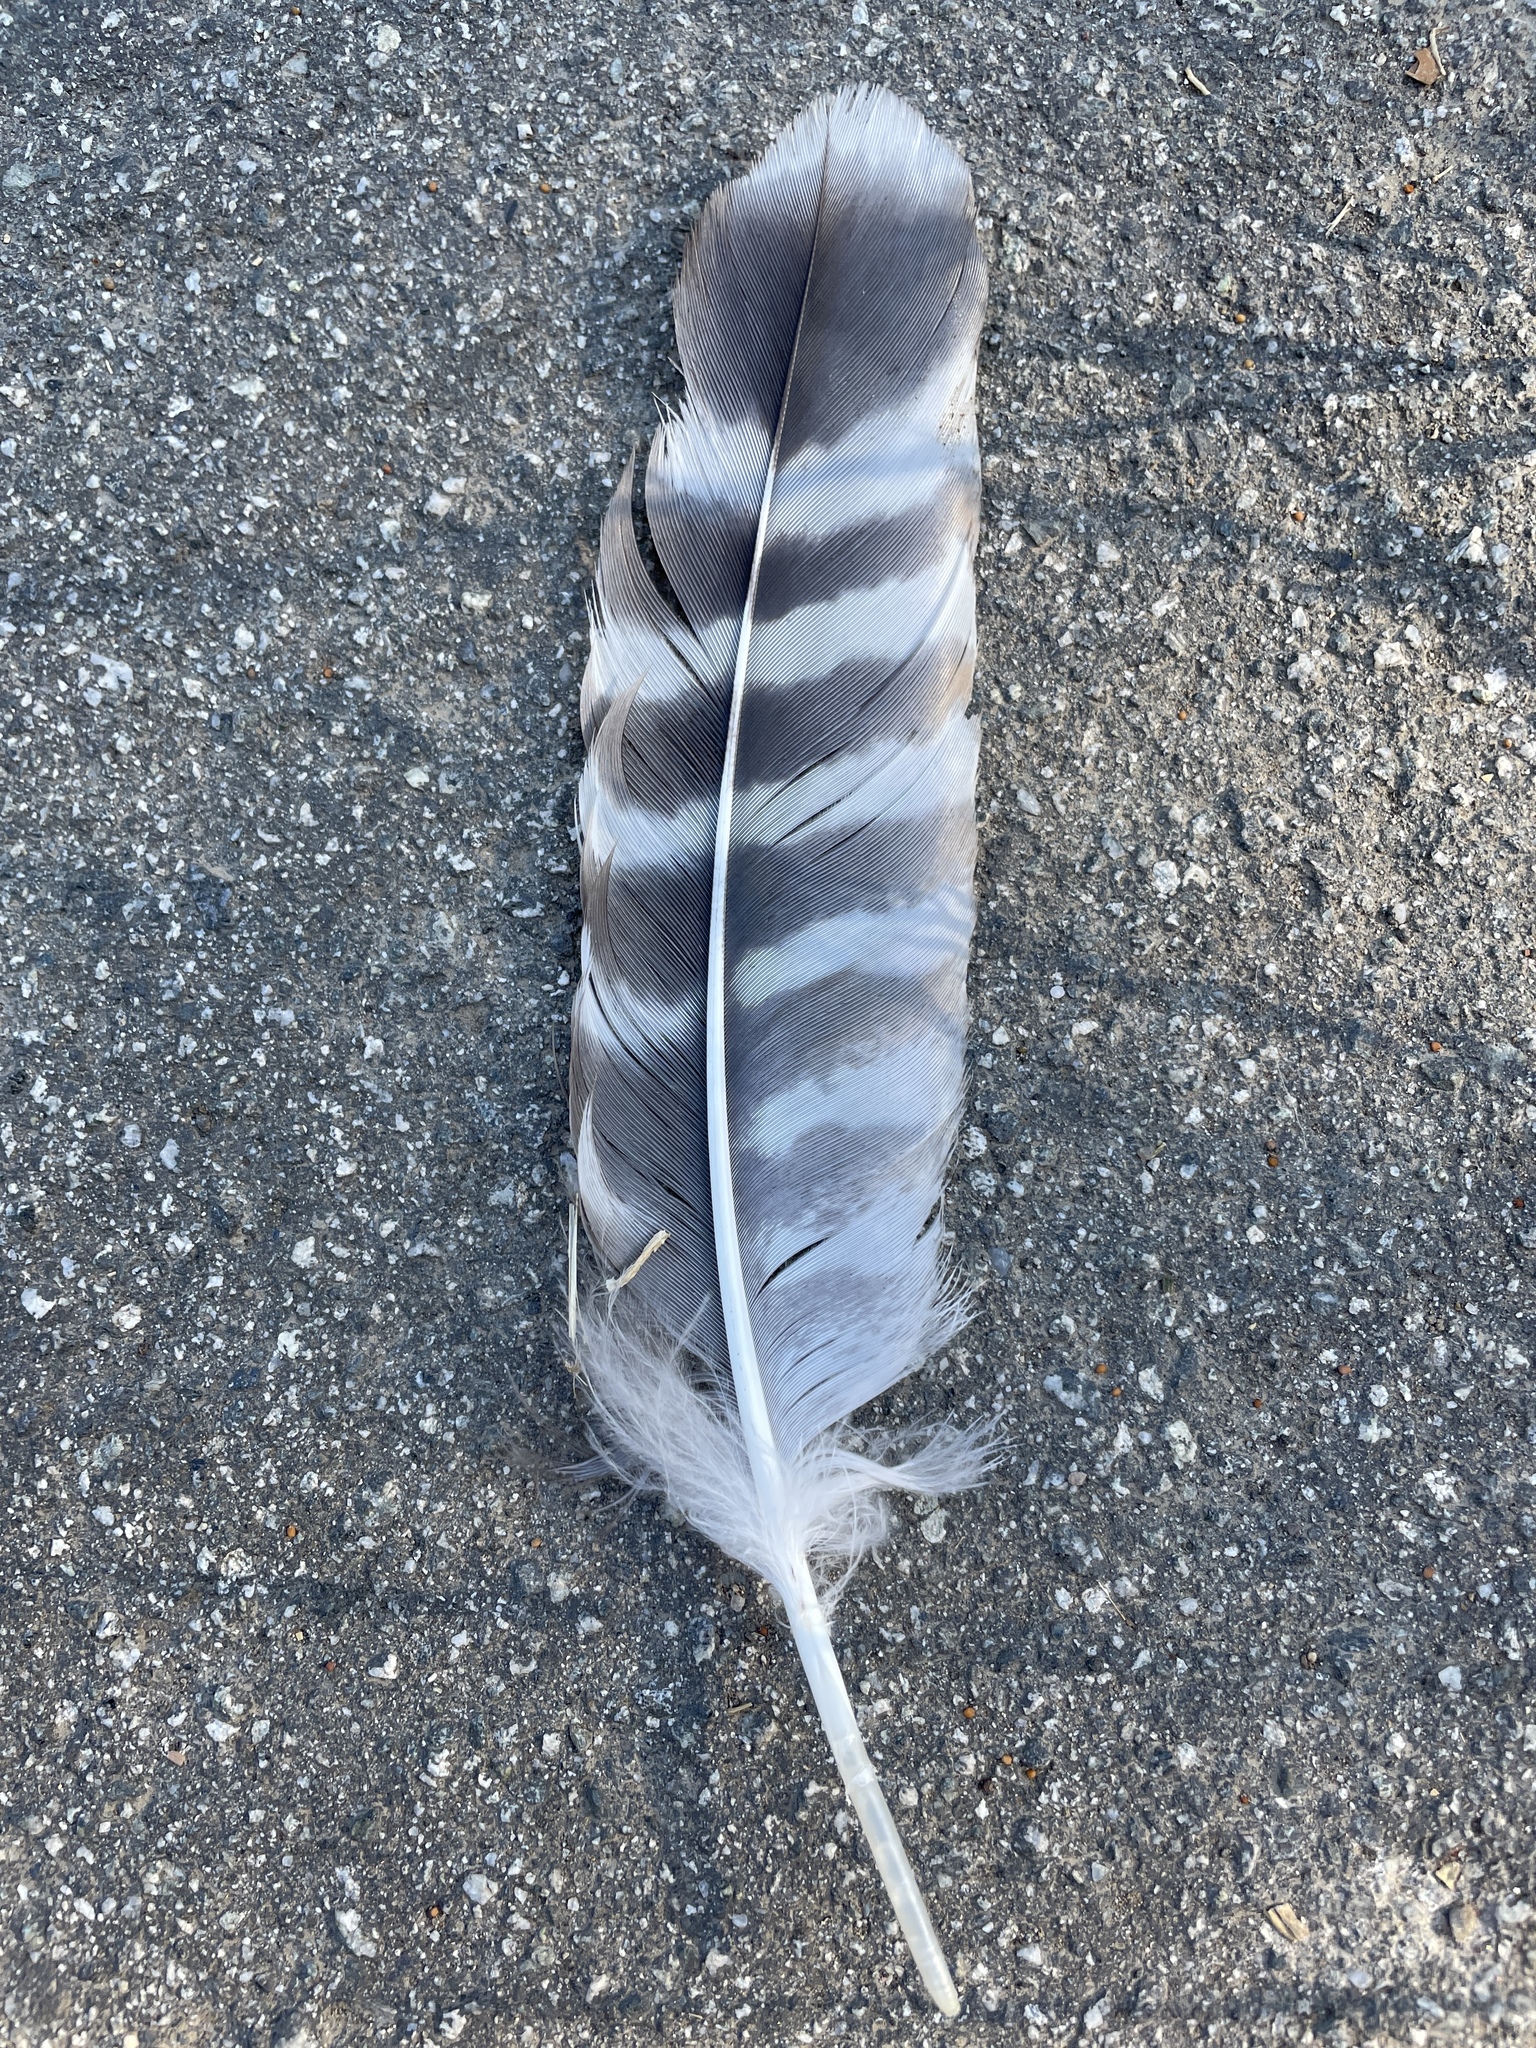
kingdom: Animalia
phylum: Chordata
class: Aves
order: Accipitriformes
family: Accipitridae
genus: Buteo
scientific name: Buteo lineatus
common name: Red-shouldered hawk
